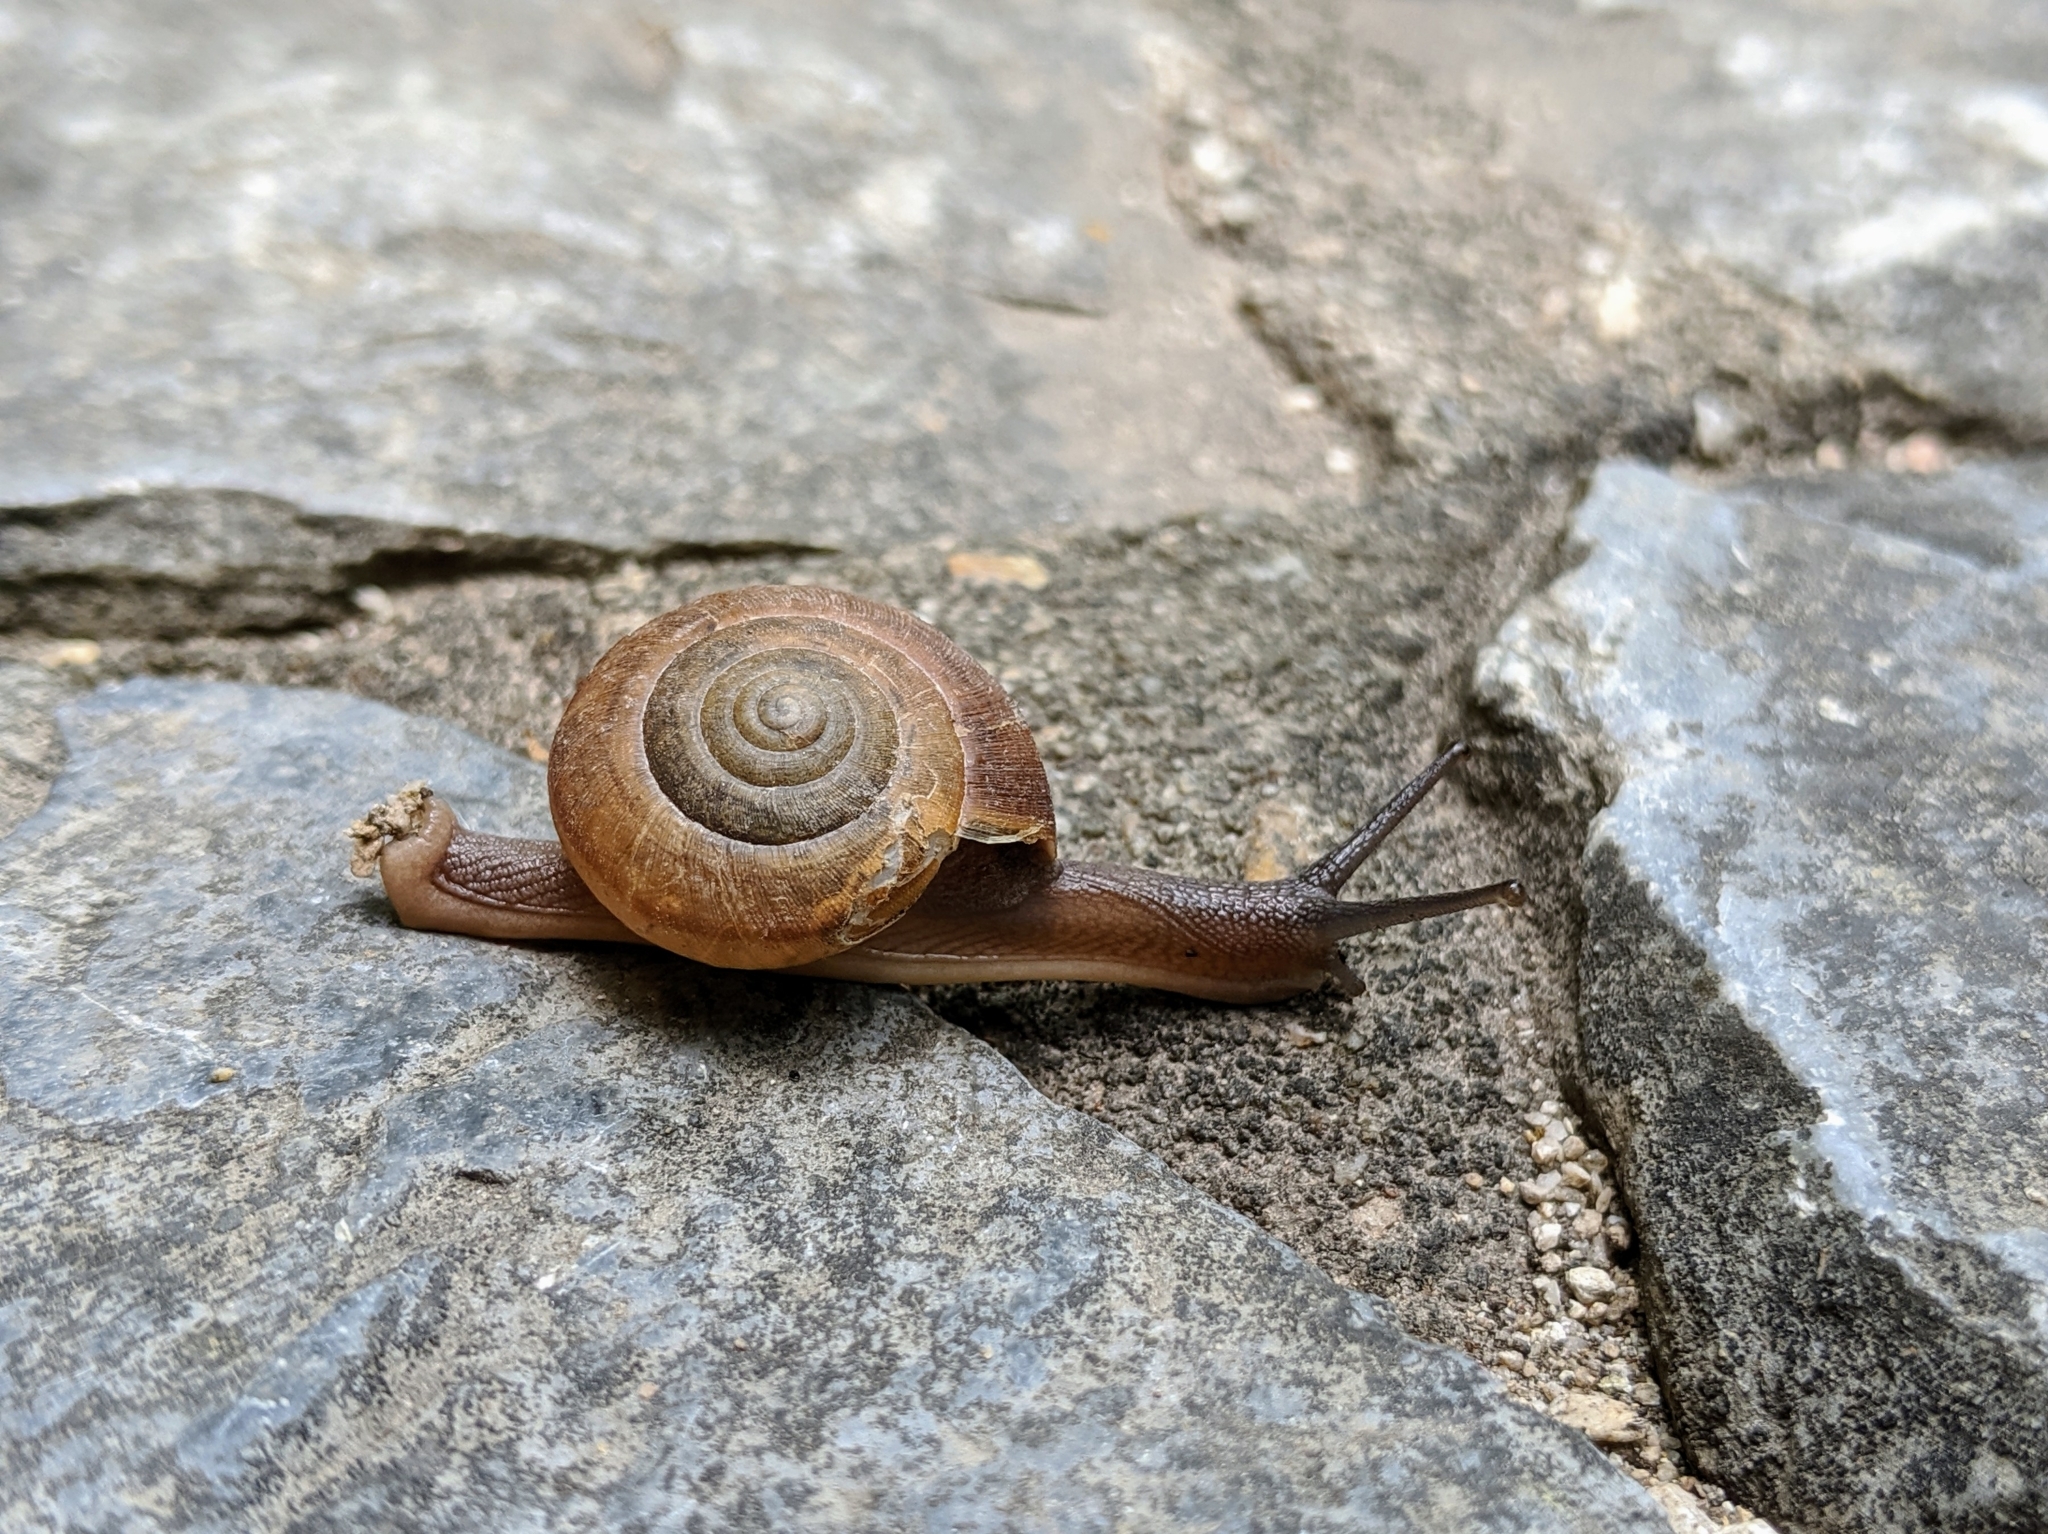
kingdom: Animalia
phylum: Mollusca
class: Gastropoda
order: Stylommatophora
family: Ariophantidae
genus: Sarika
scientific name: Sarika siamensis
